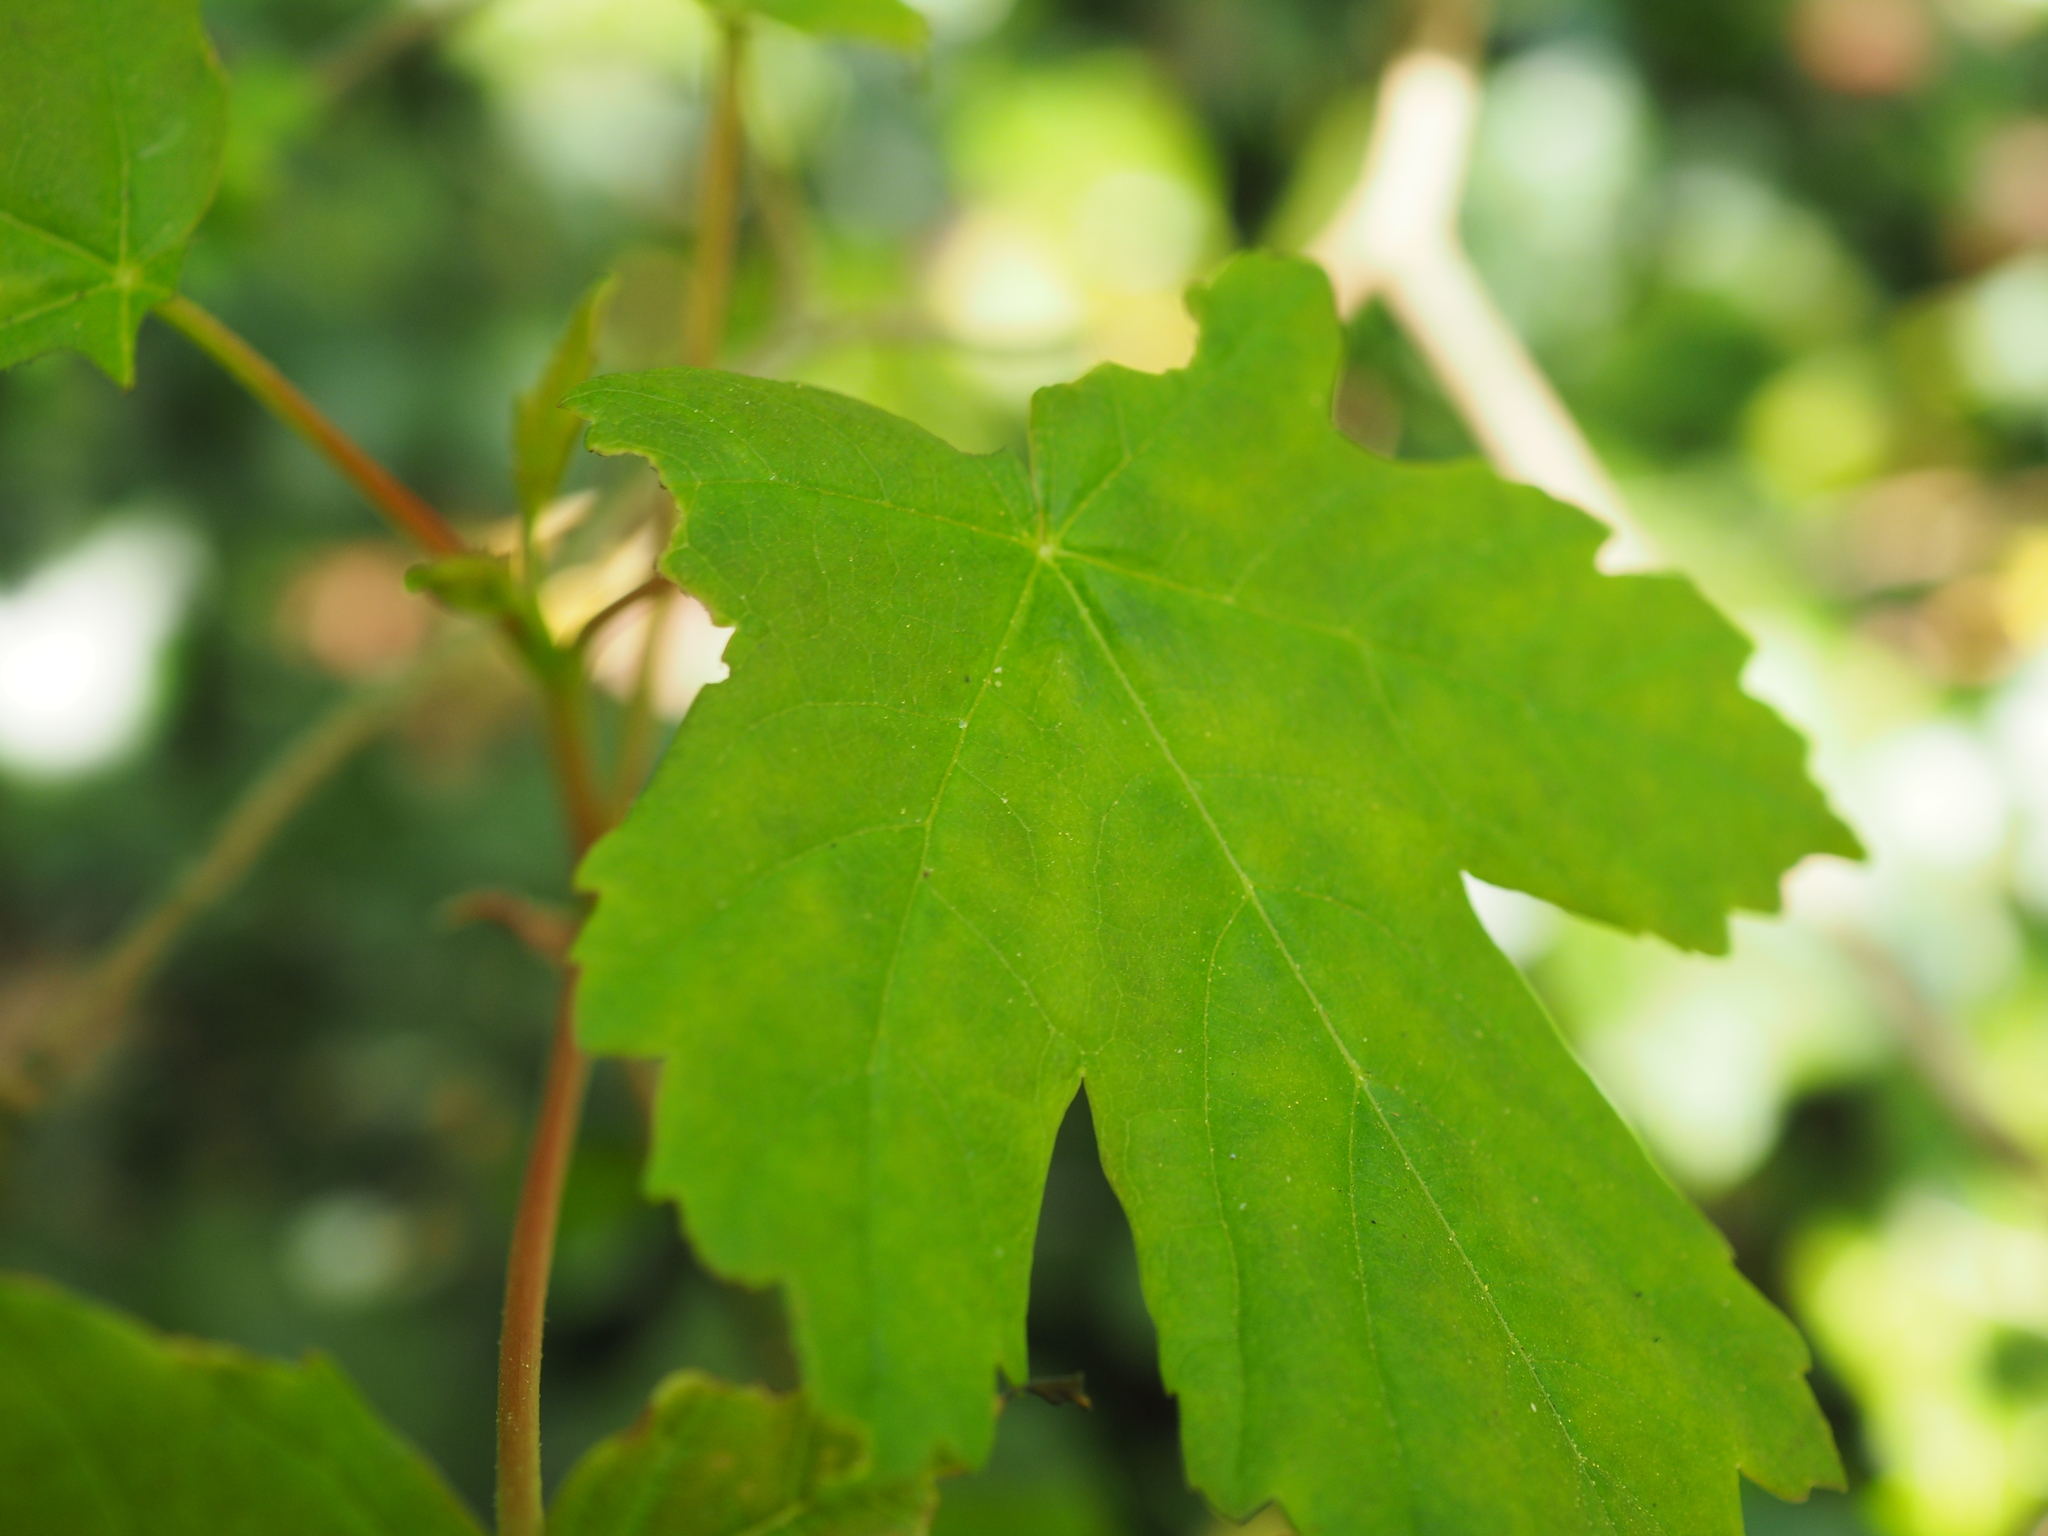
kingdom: Plantae
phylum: Tracheophyta
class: Magnoliopsida
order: Sapindales
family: Sapindaceae
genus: Acer
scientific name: Acer pseudoplatanus
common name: Sycamore
